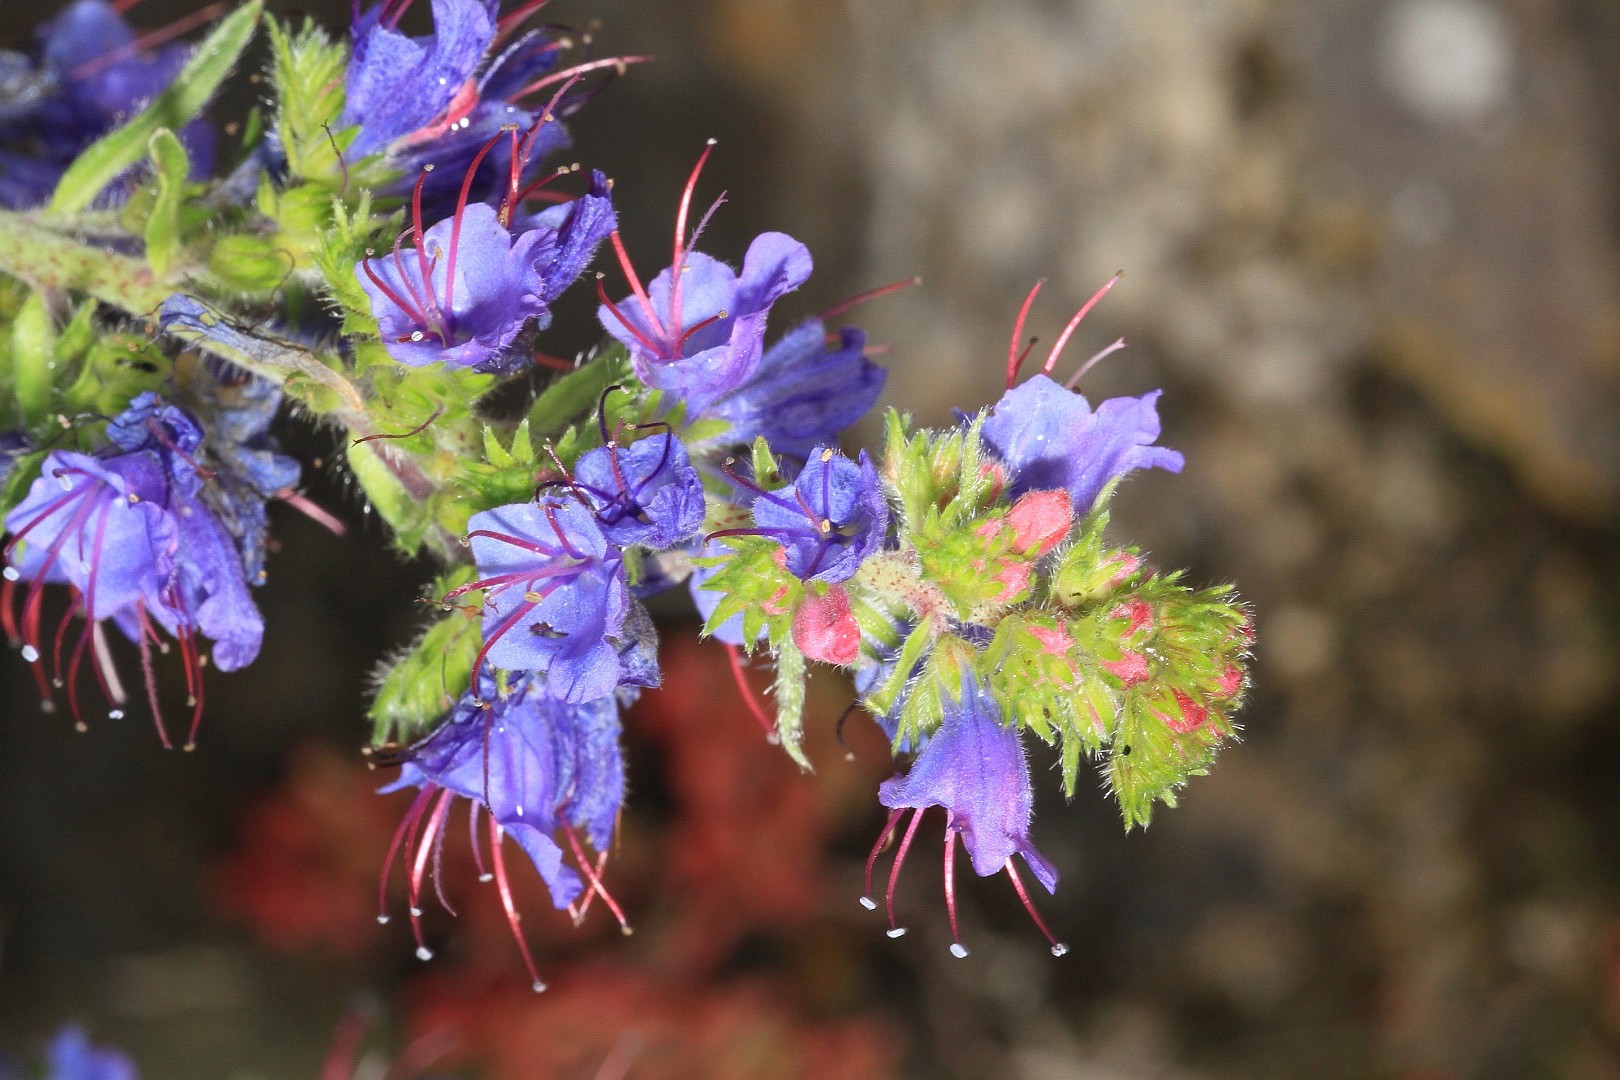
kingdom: Plantae
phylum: Tracheophyta
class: Magnoliopsida
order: Boraginales
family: Boraginaceae
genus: Echium
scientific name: Echium vulgare
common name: Common viper's bugloss
